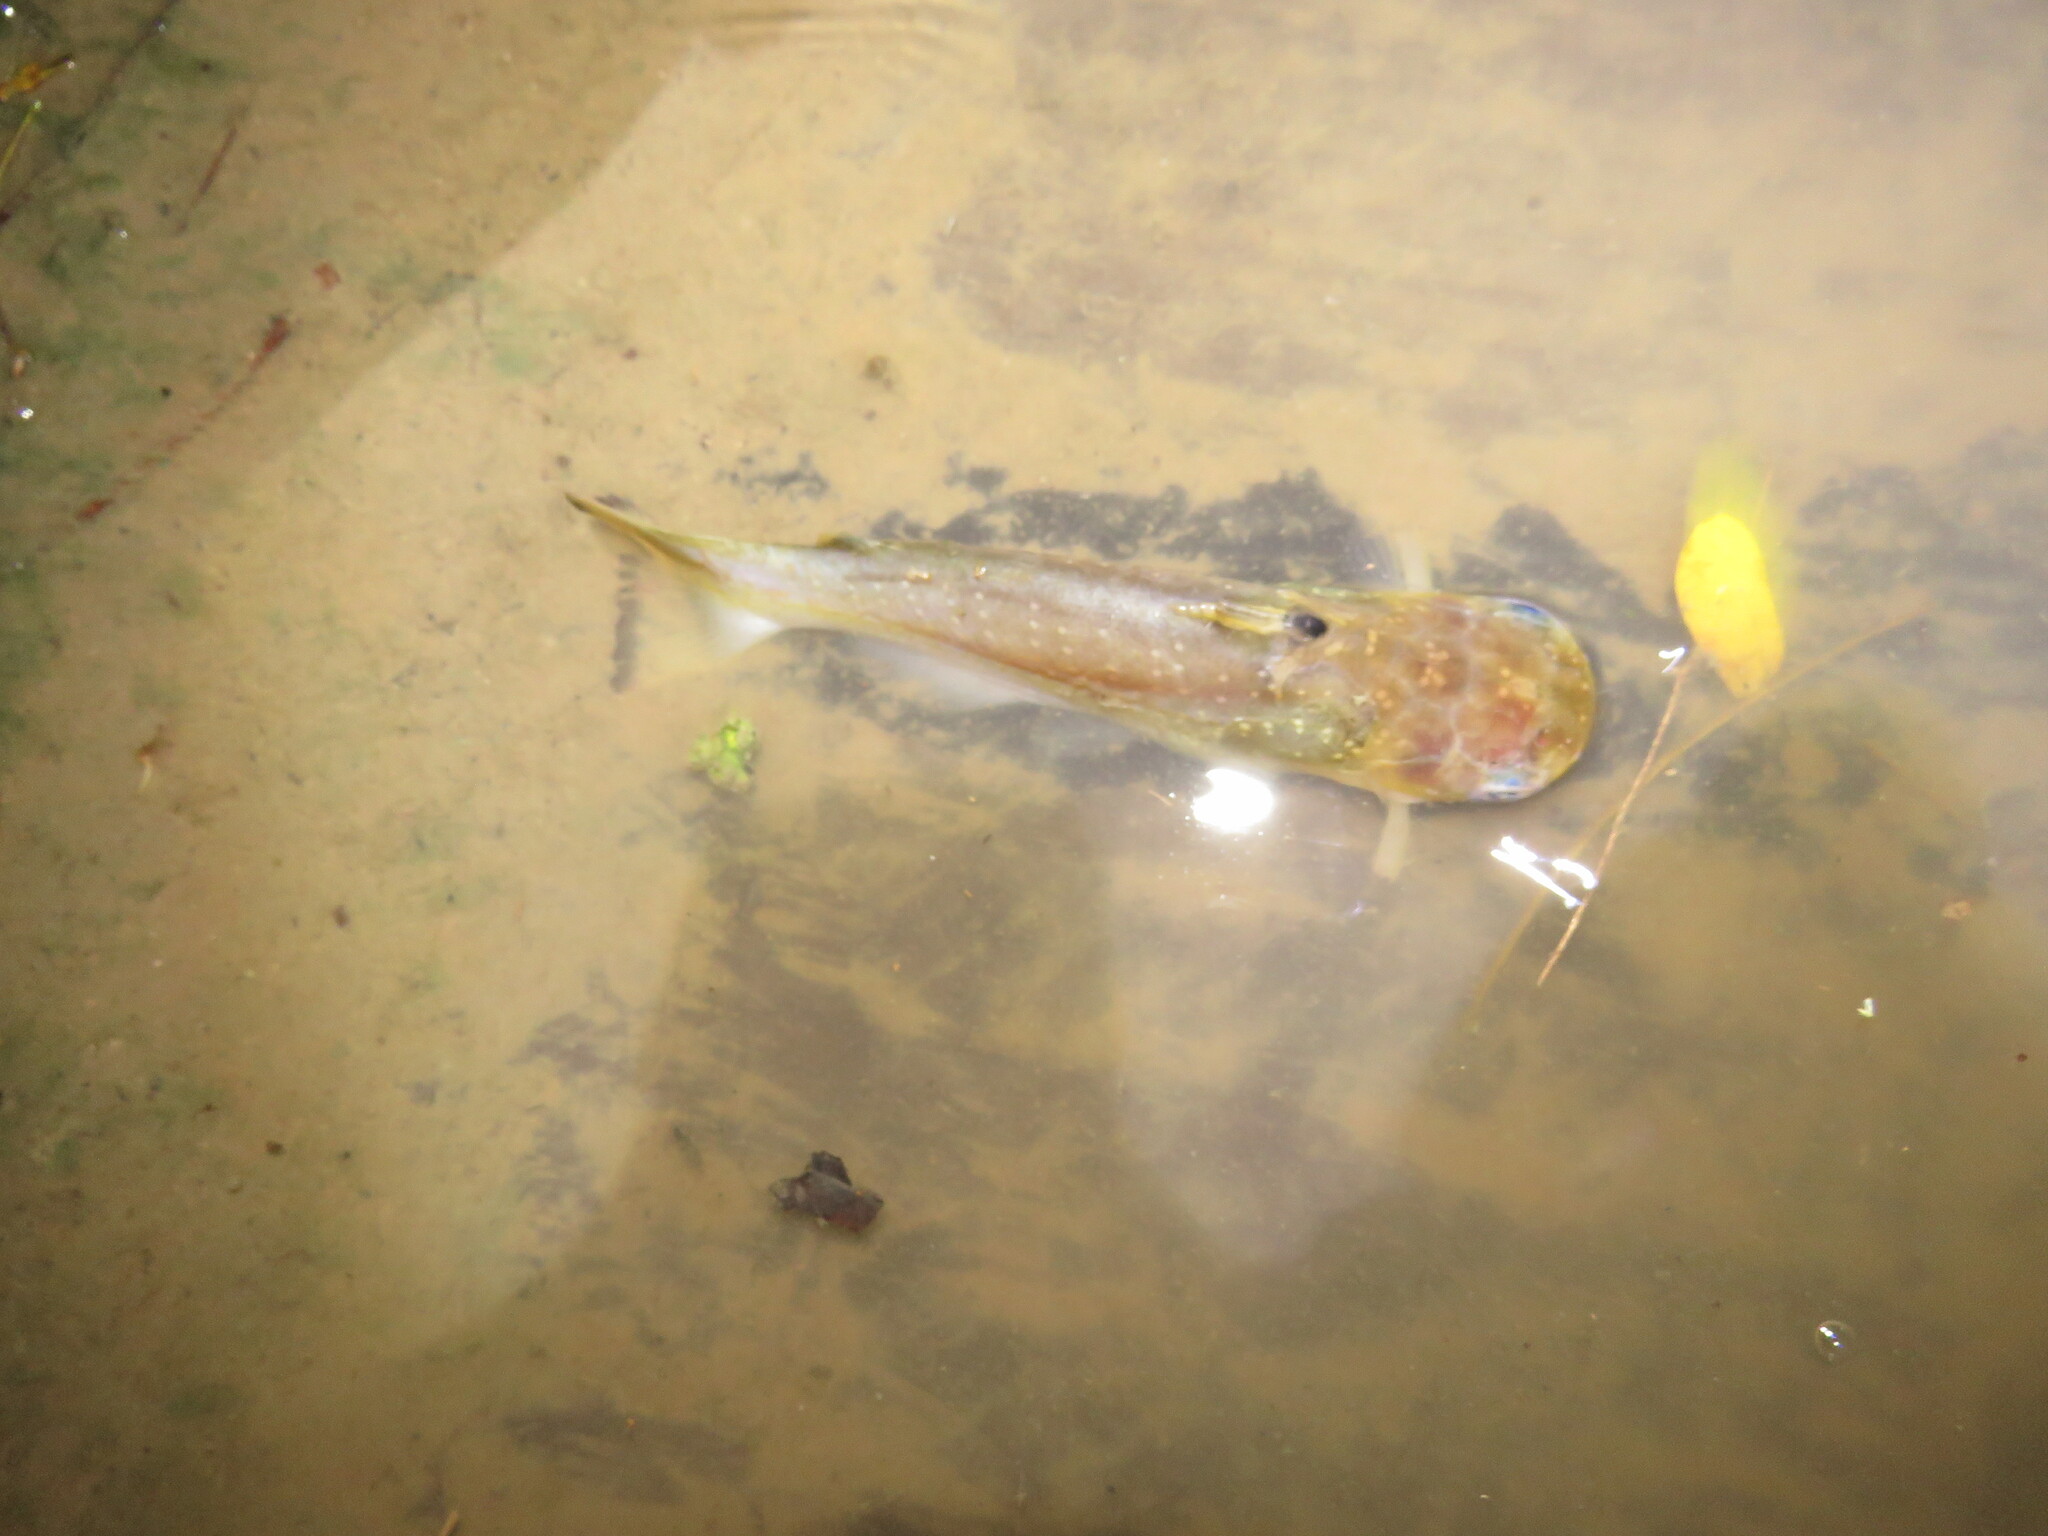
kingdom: Animalia
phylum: Chordata
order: Siluriformes
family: Auchenipteridae
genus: Auchenipterichthys
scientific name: Auchenipterichthys thoracatus
